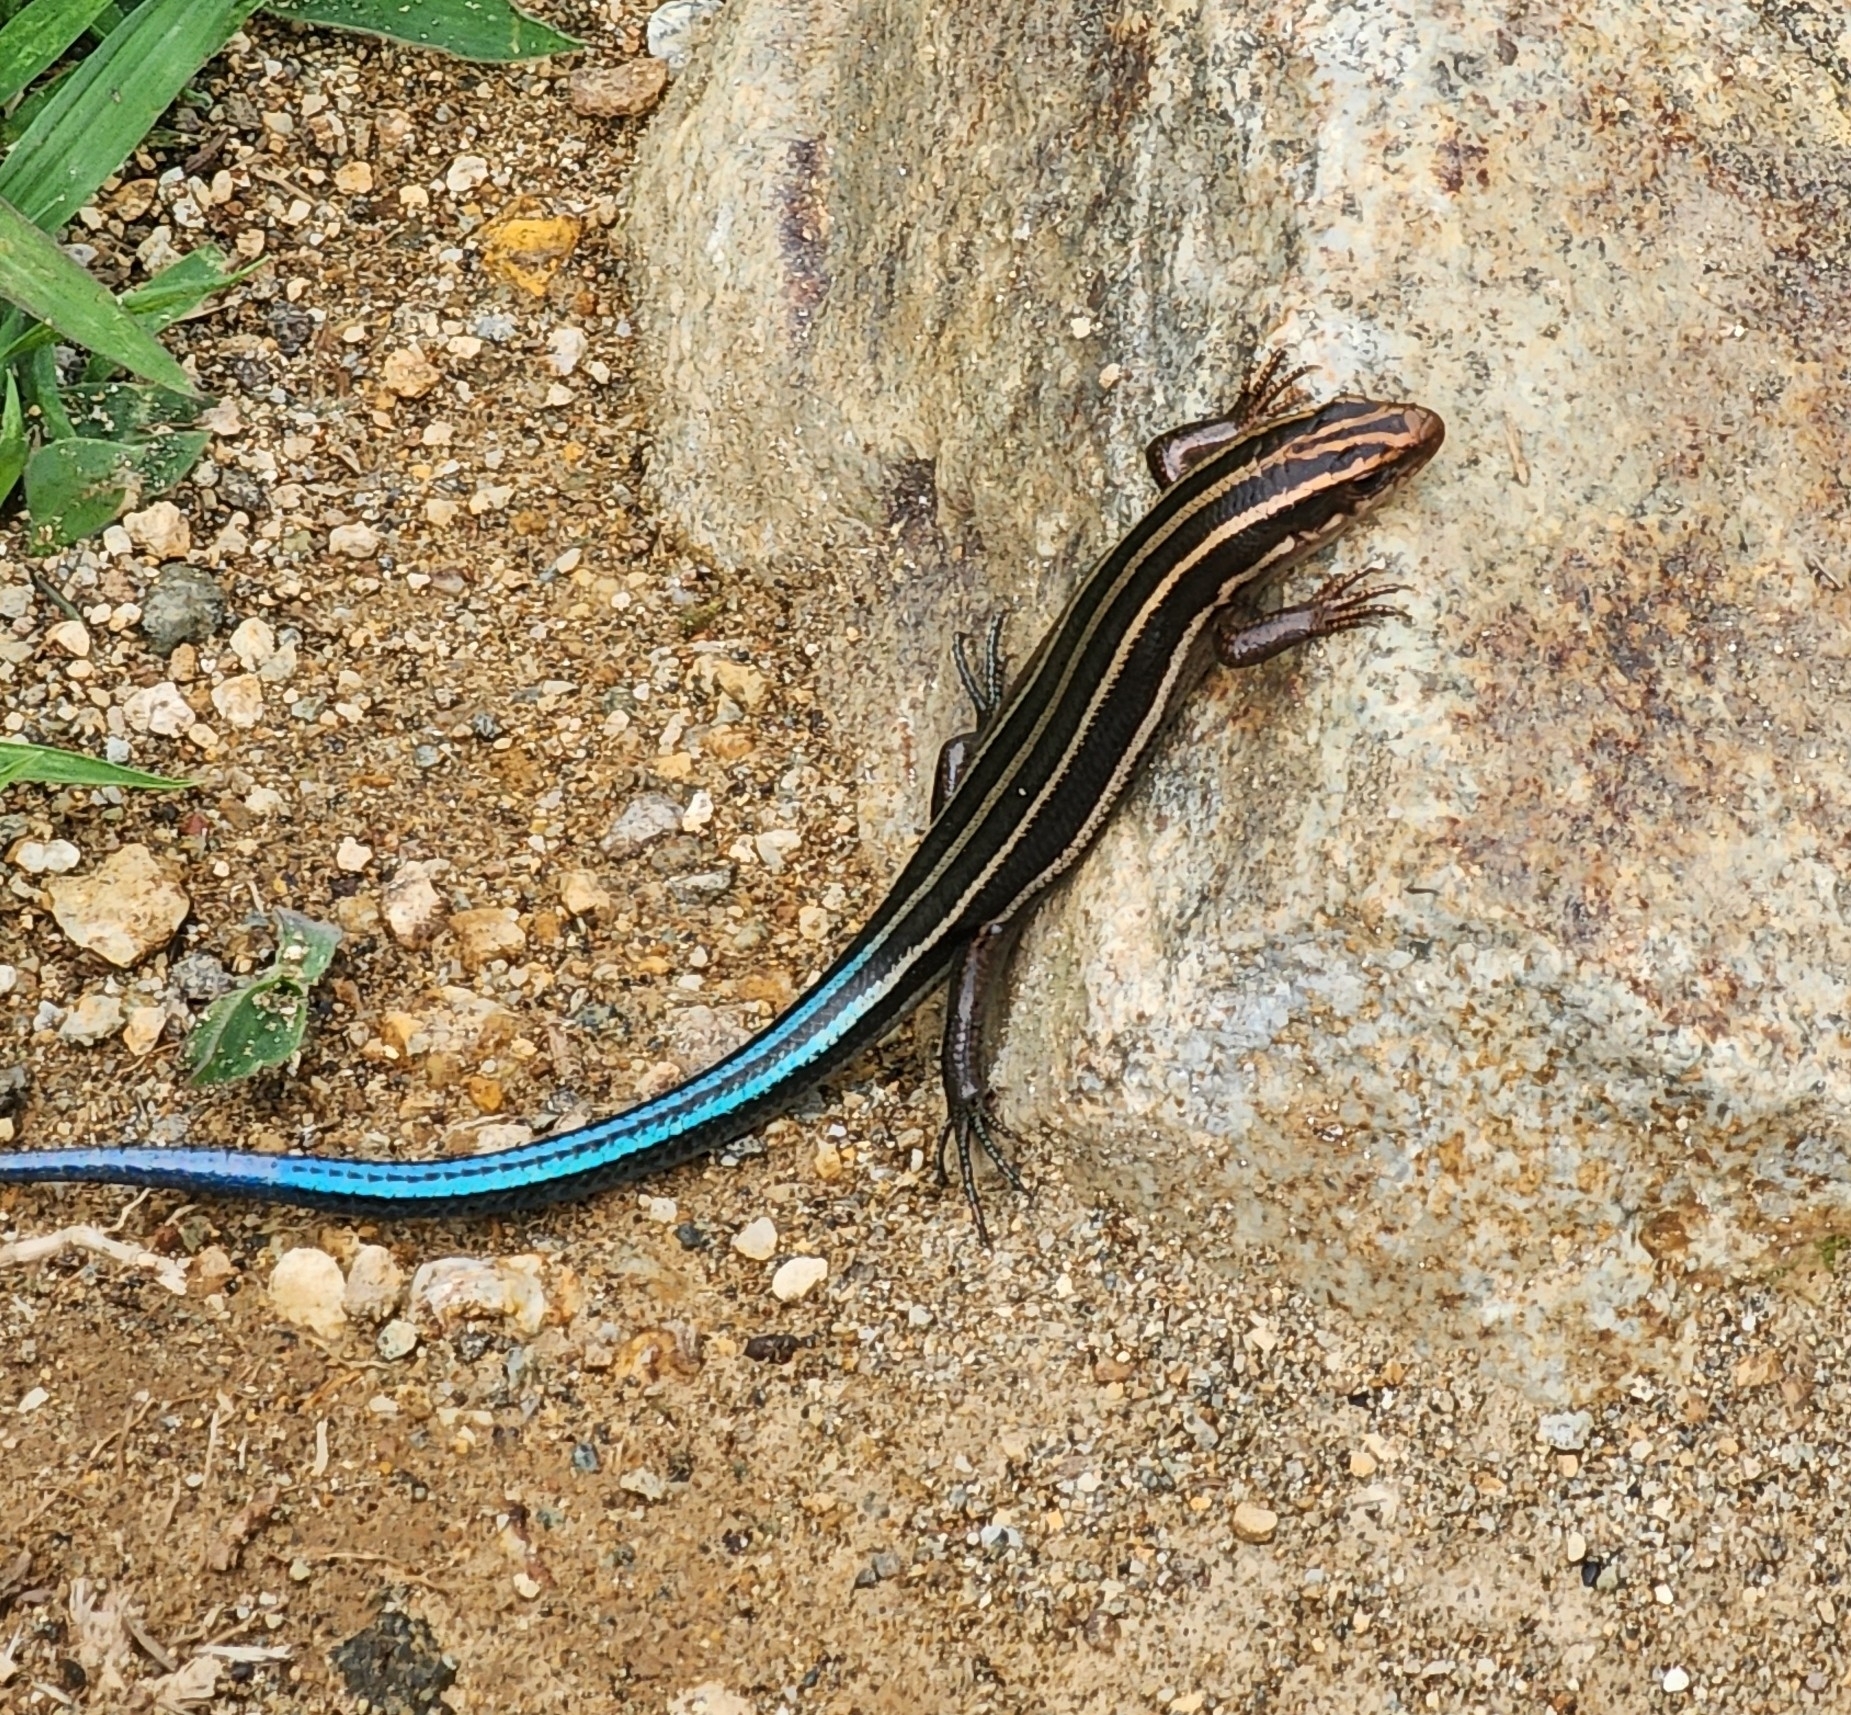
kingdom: Animalia
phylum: Chordata
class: Squamata
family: Scincidae
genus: Plestiodon
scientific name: Plestiodon finitimus
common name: Far eastern skink
